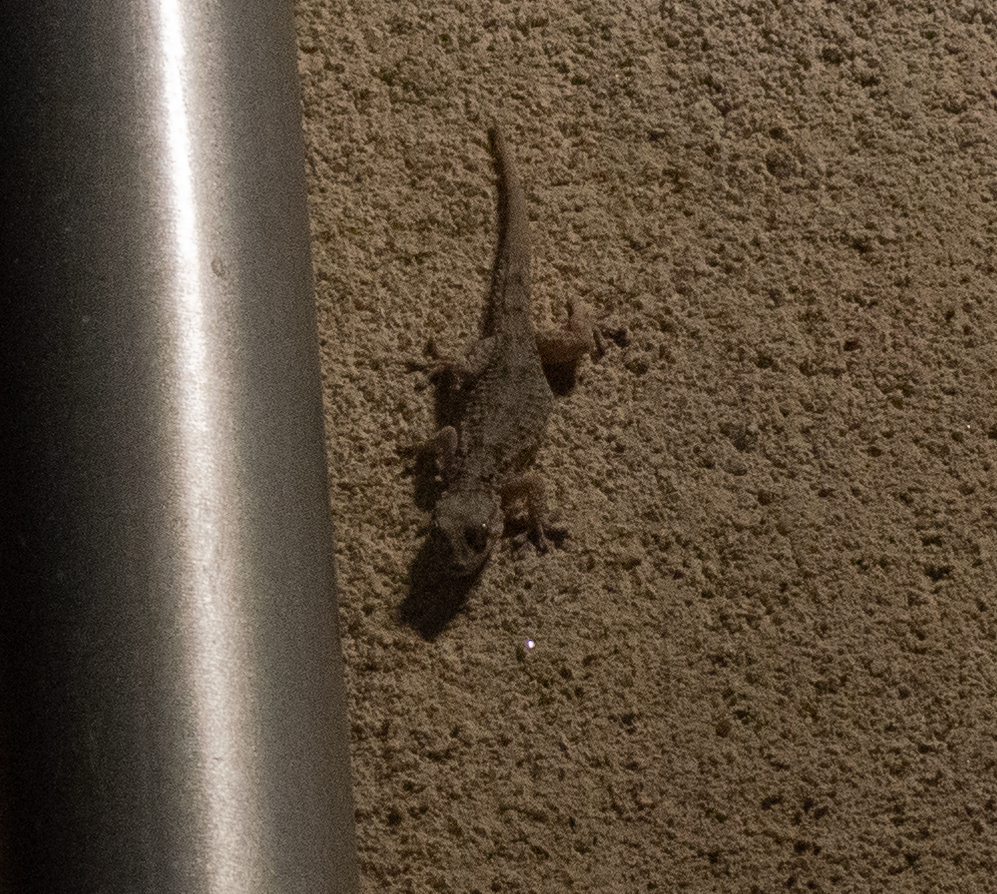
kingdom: Animalia
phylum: Chordata
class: Squamata
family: Phyllodactylidae
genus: Tarentola
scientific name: Tarentola mauritanica
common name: Moorish gecko
